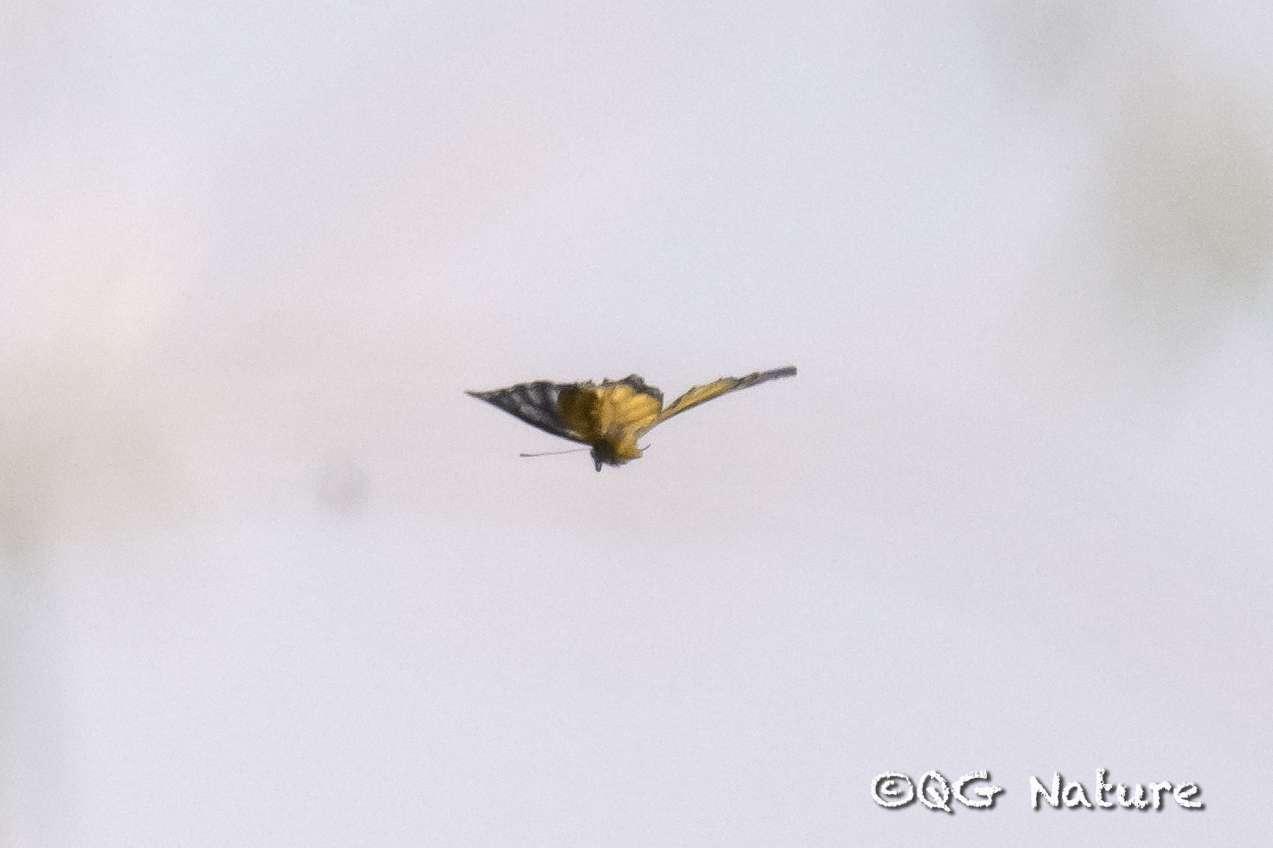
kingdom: Animalia
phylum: Arthropoda
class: Insecta
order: Lepidoptera
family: Pieridae
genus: Delias
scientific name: Delias descombesi
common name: Red-spot jezebel
